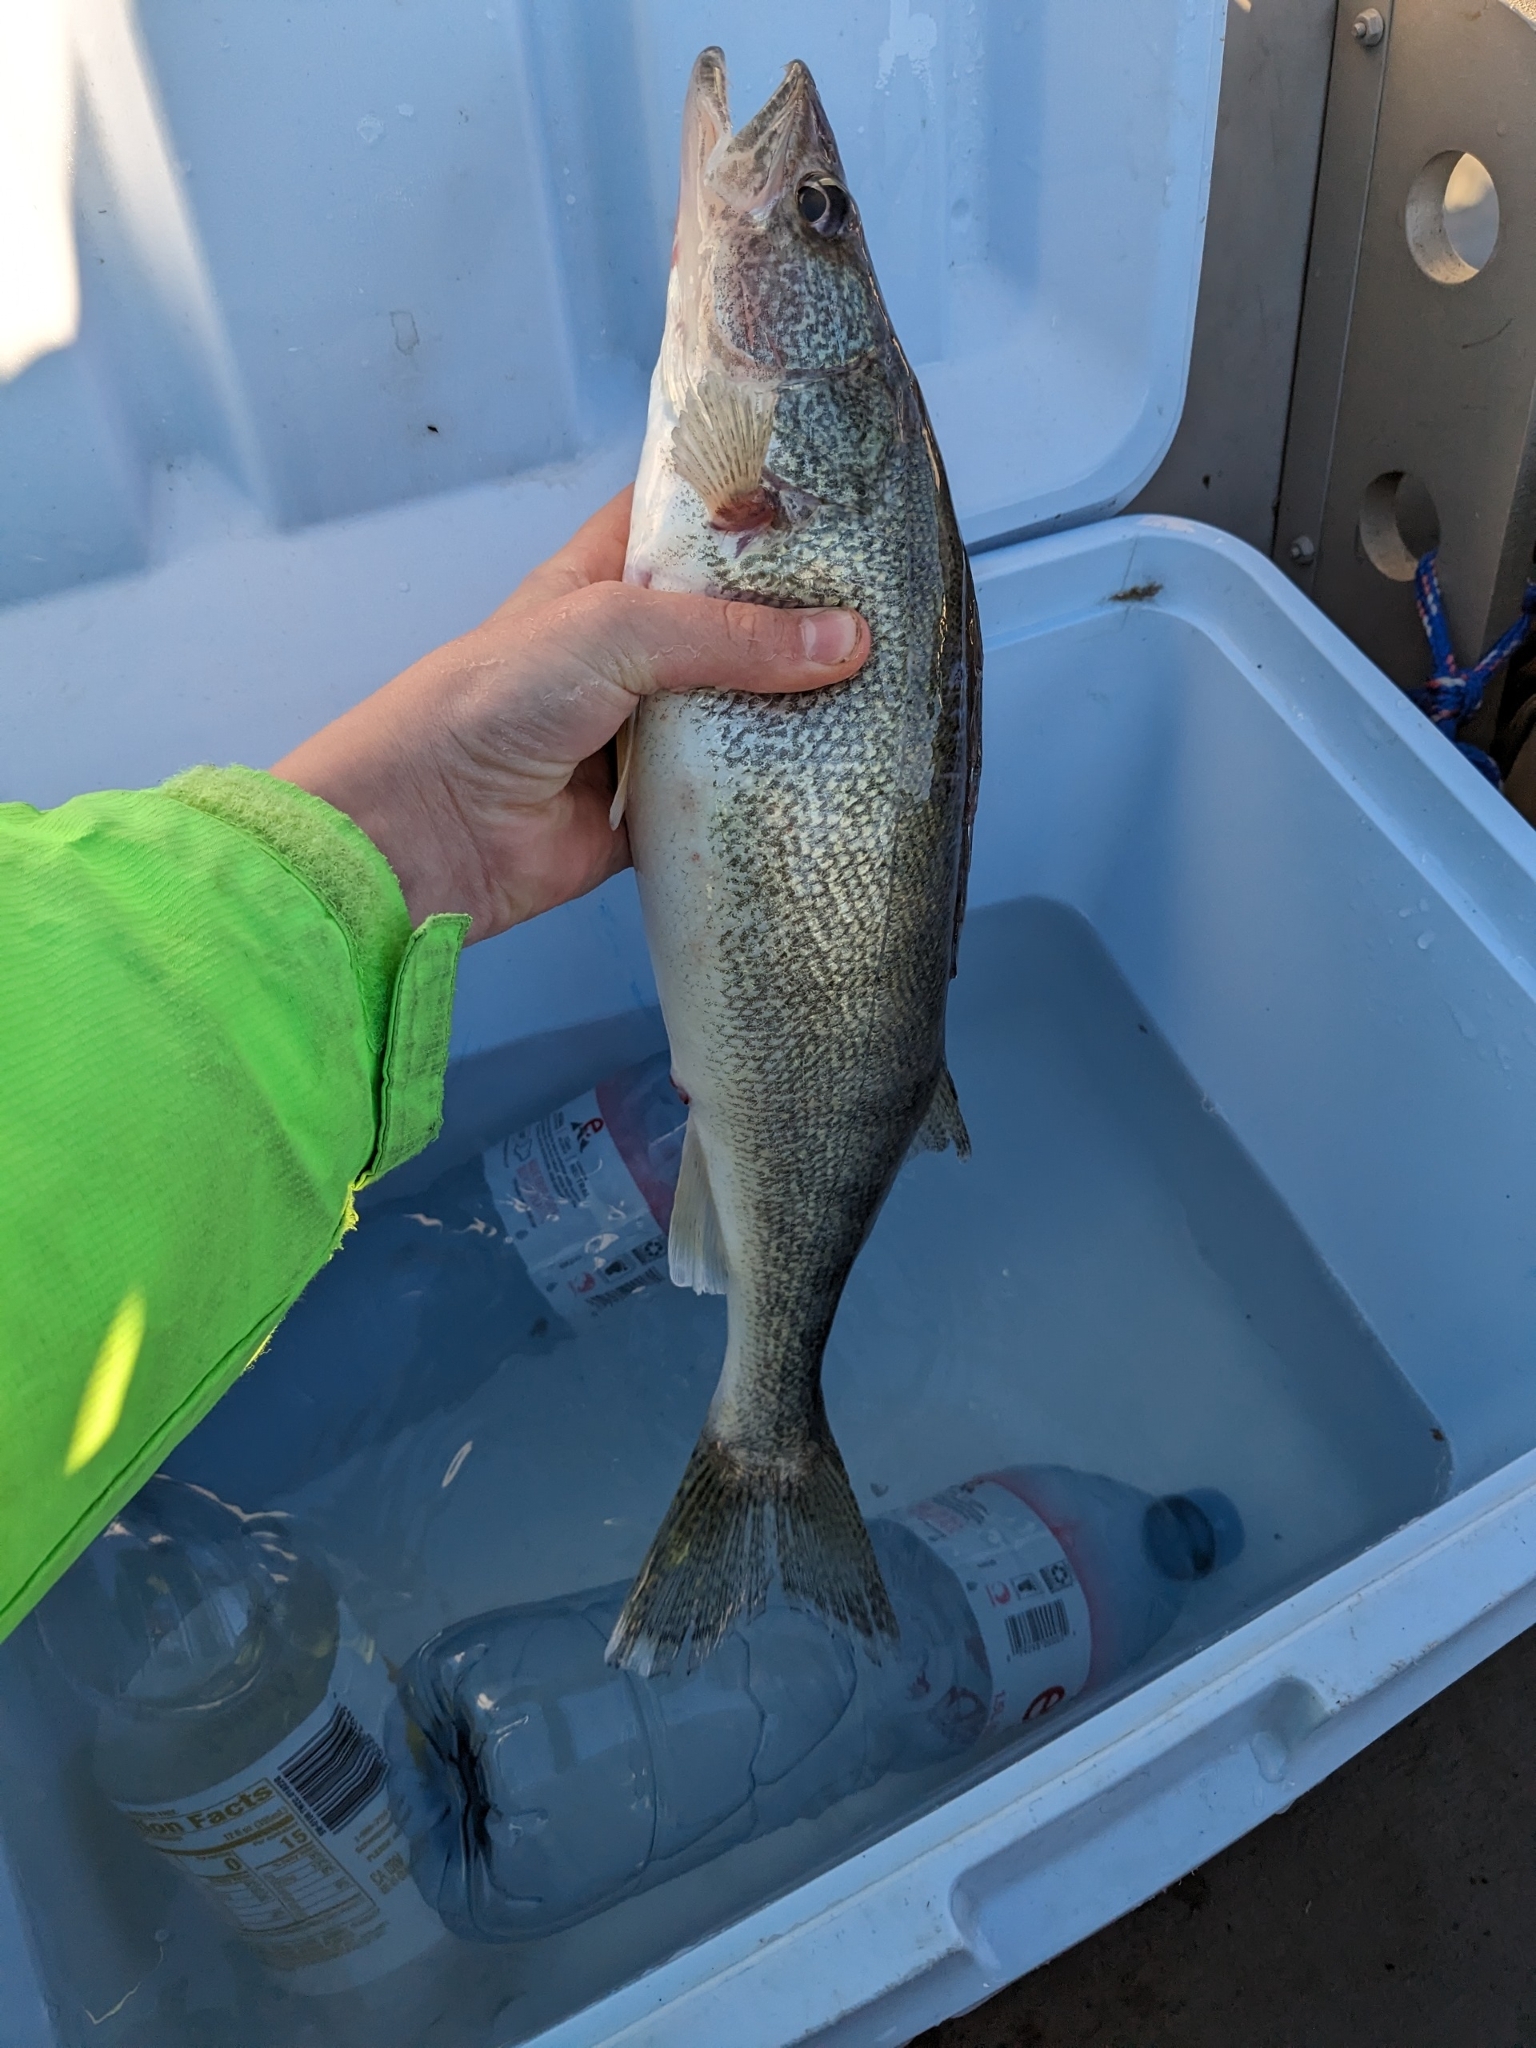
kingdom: Animalia
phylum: Chordata
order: Perciformes
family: Percidae
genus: Sander
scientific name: Sander vitreus
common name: Walleye
